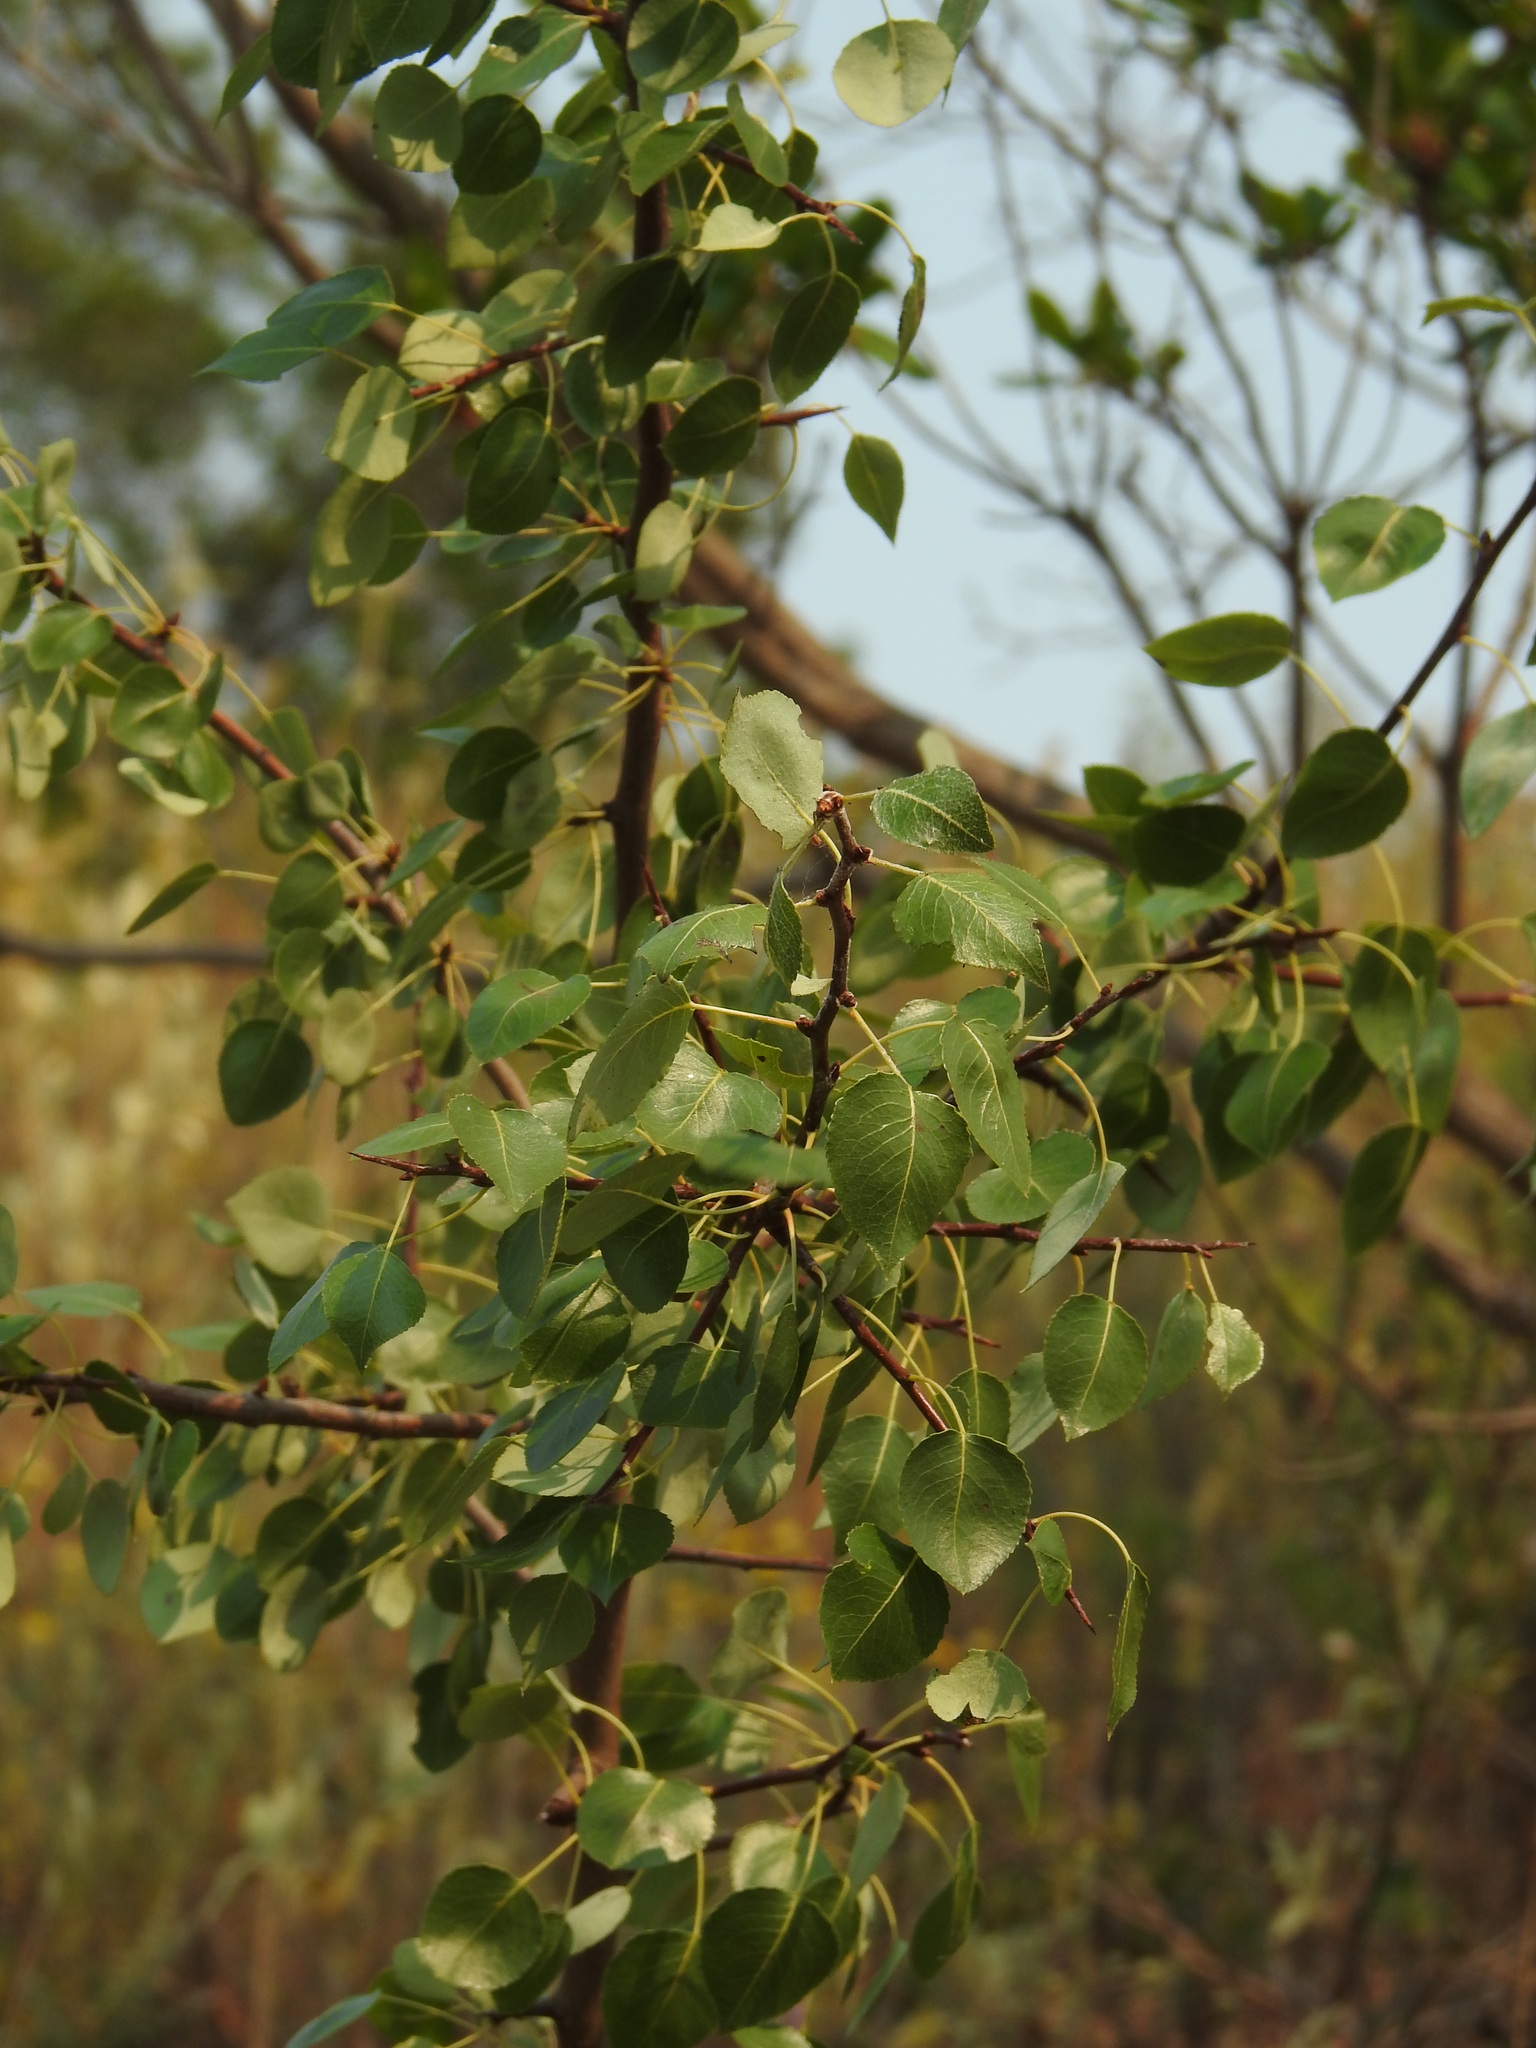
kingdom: Plantae
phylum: Tracheophyta
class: Magnoliopsida
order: Rosales
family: Rosaceae
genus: Pyrus
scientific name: Pyrus bourgaeana
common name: Iberian pear
